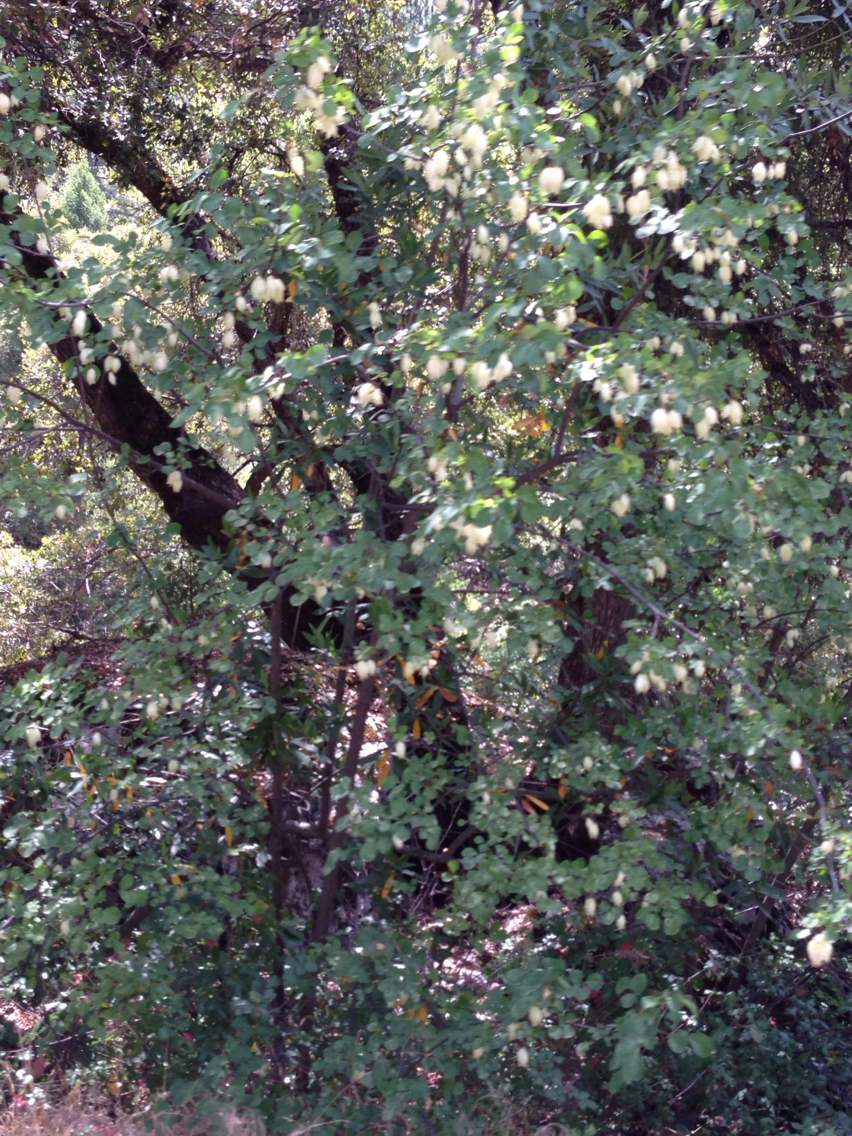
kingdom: Plantae
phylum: Tracheophyta
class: Magnoliopsida
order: Crossosomatales
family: Staphyleaceae
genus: Staphylea
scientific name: Staphylea bolanderi
